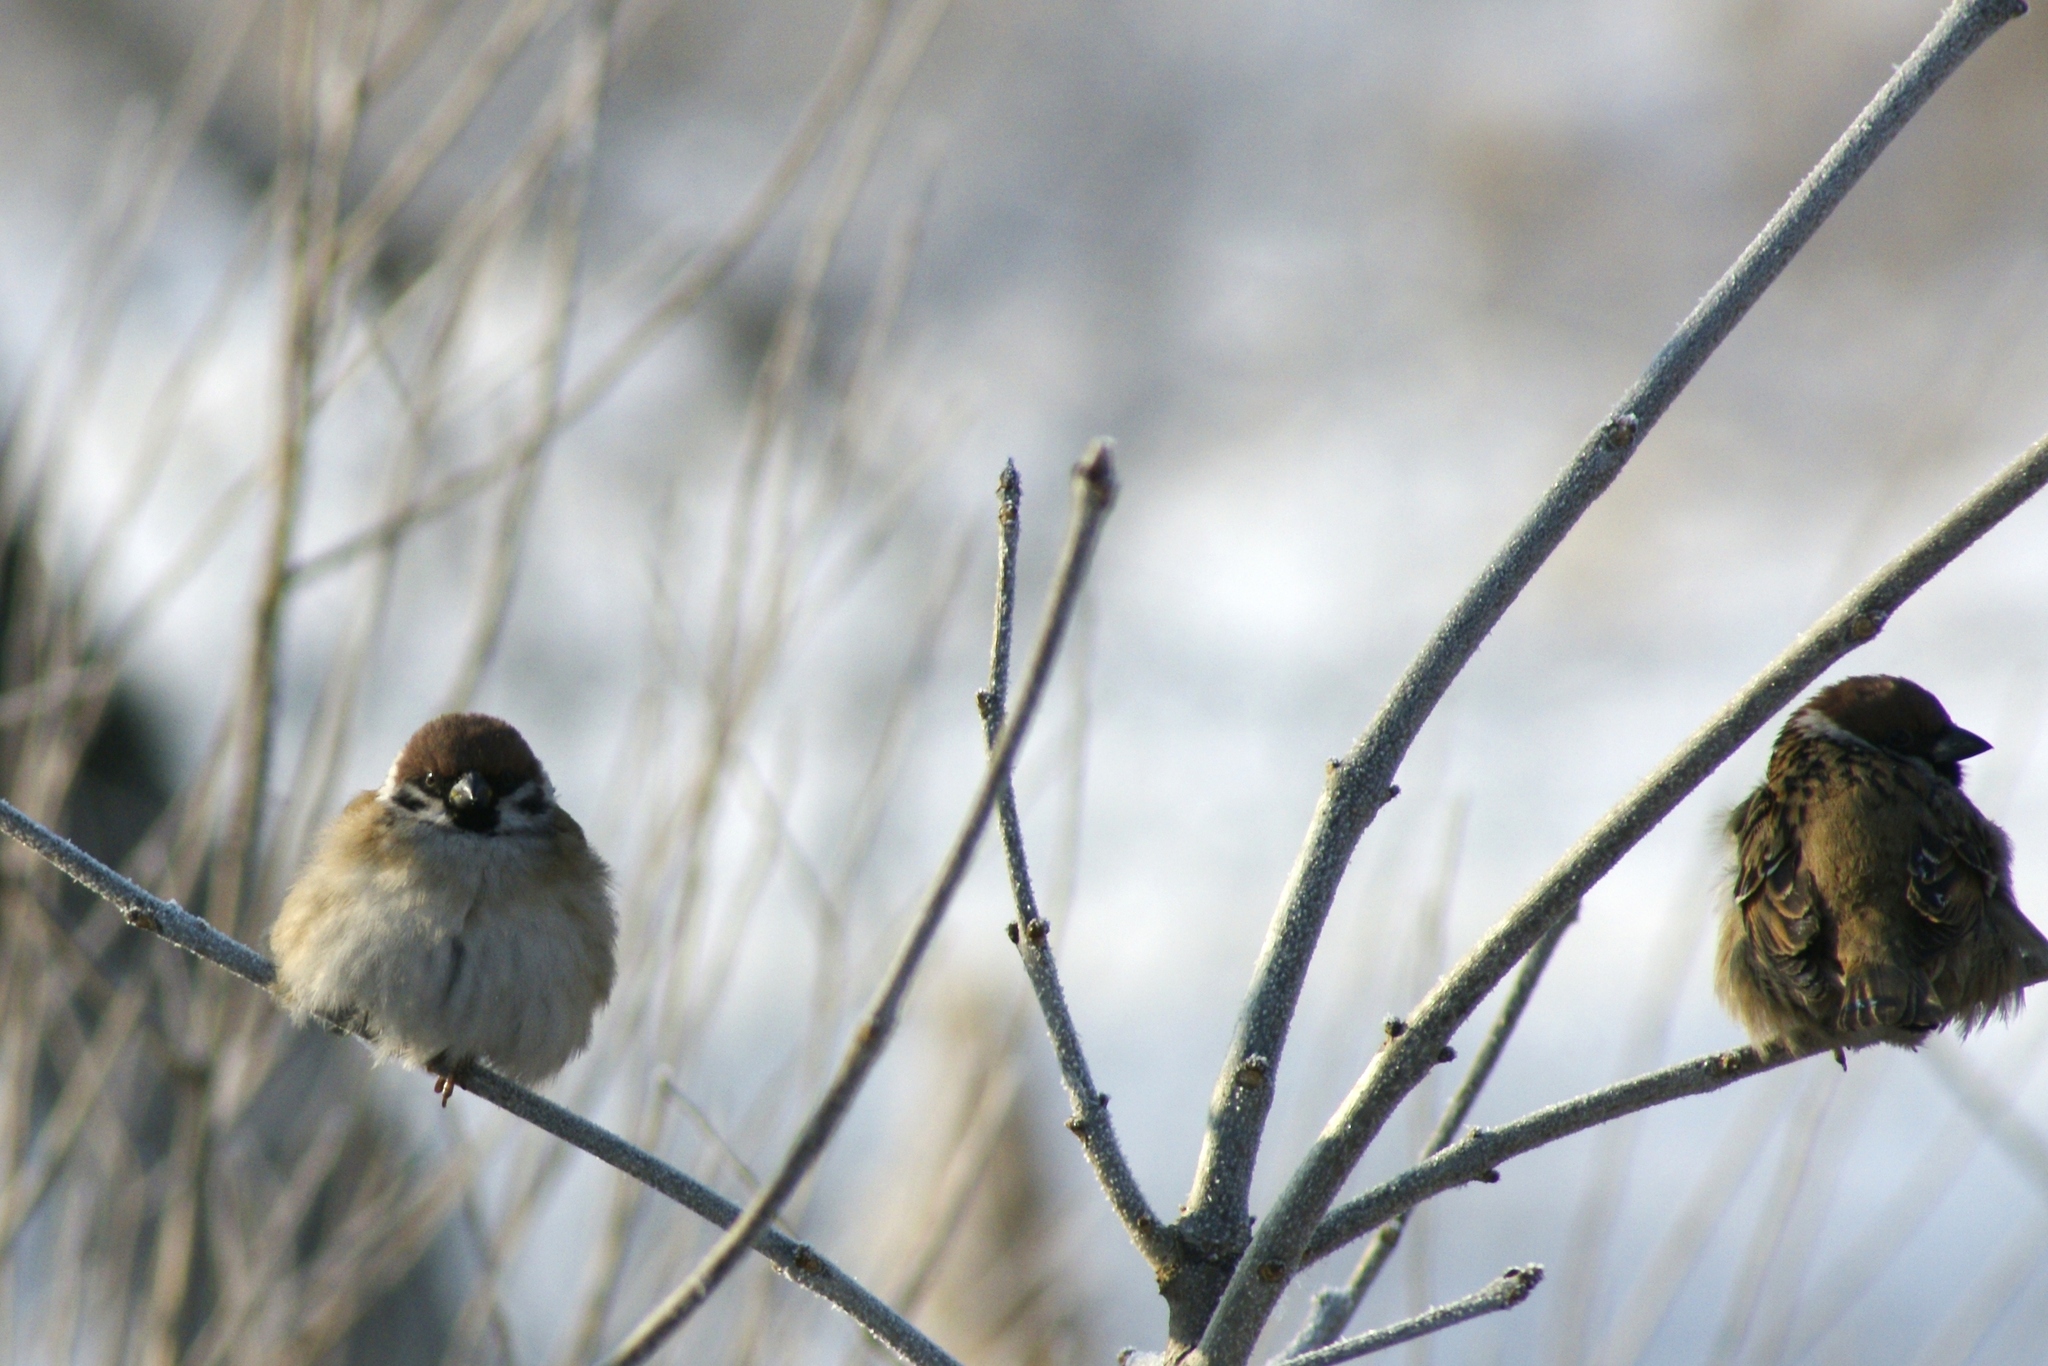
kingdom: Animalia
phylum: Chordata
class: Aves
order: Passeriformes
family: Passeridae
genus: Passer
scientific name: Passer montanus
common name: Eurasian tree sparrow
